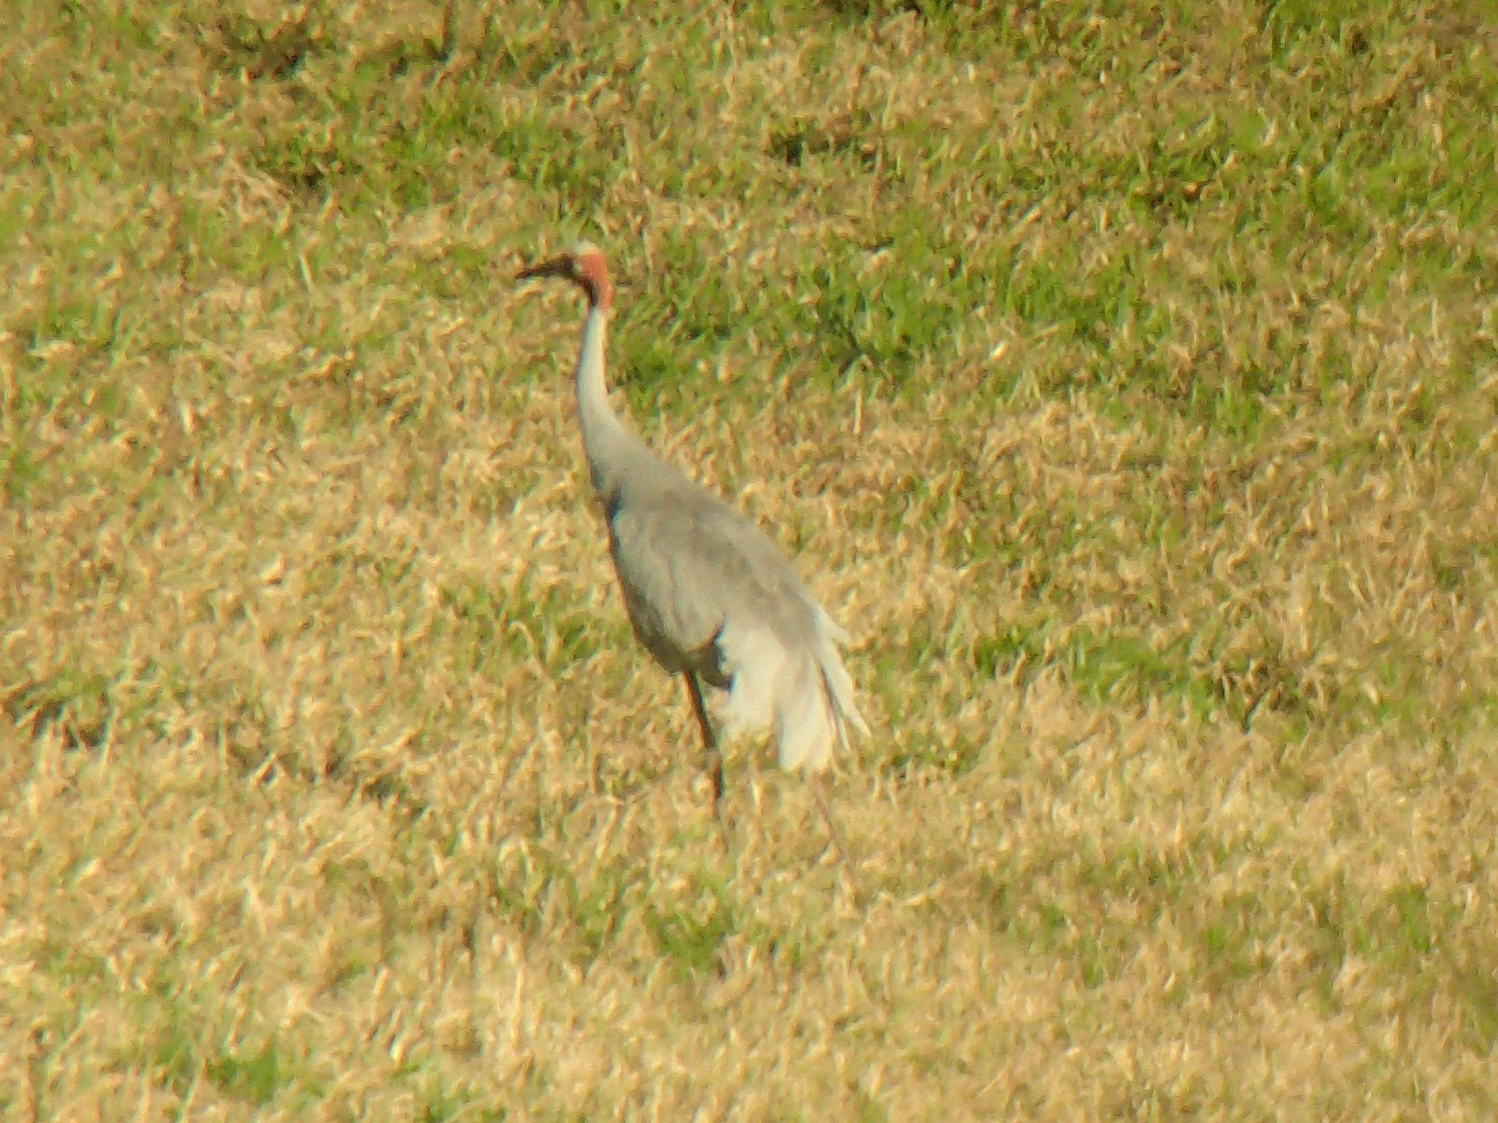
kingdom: Animalia
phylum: Chordata
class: Aves
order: Gruiformes
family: Gruidae
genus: Grus
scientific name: Grus antigone
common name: Sarus crane
